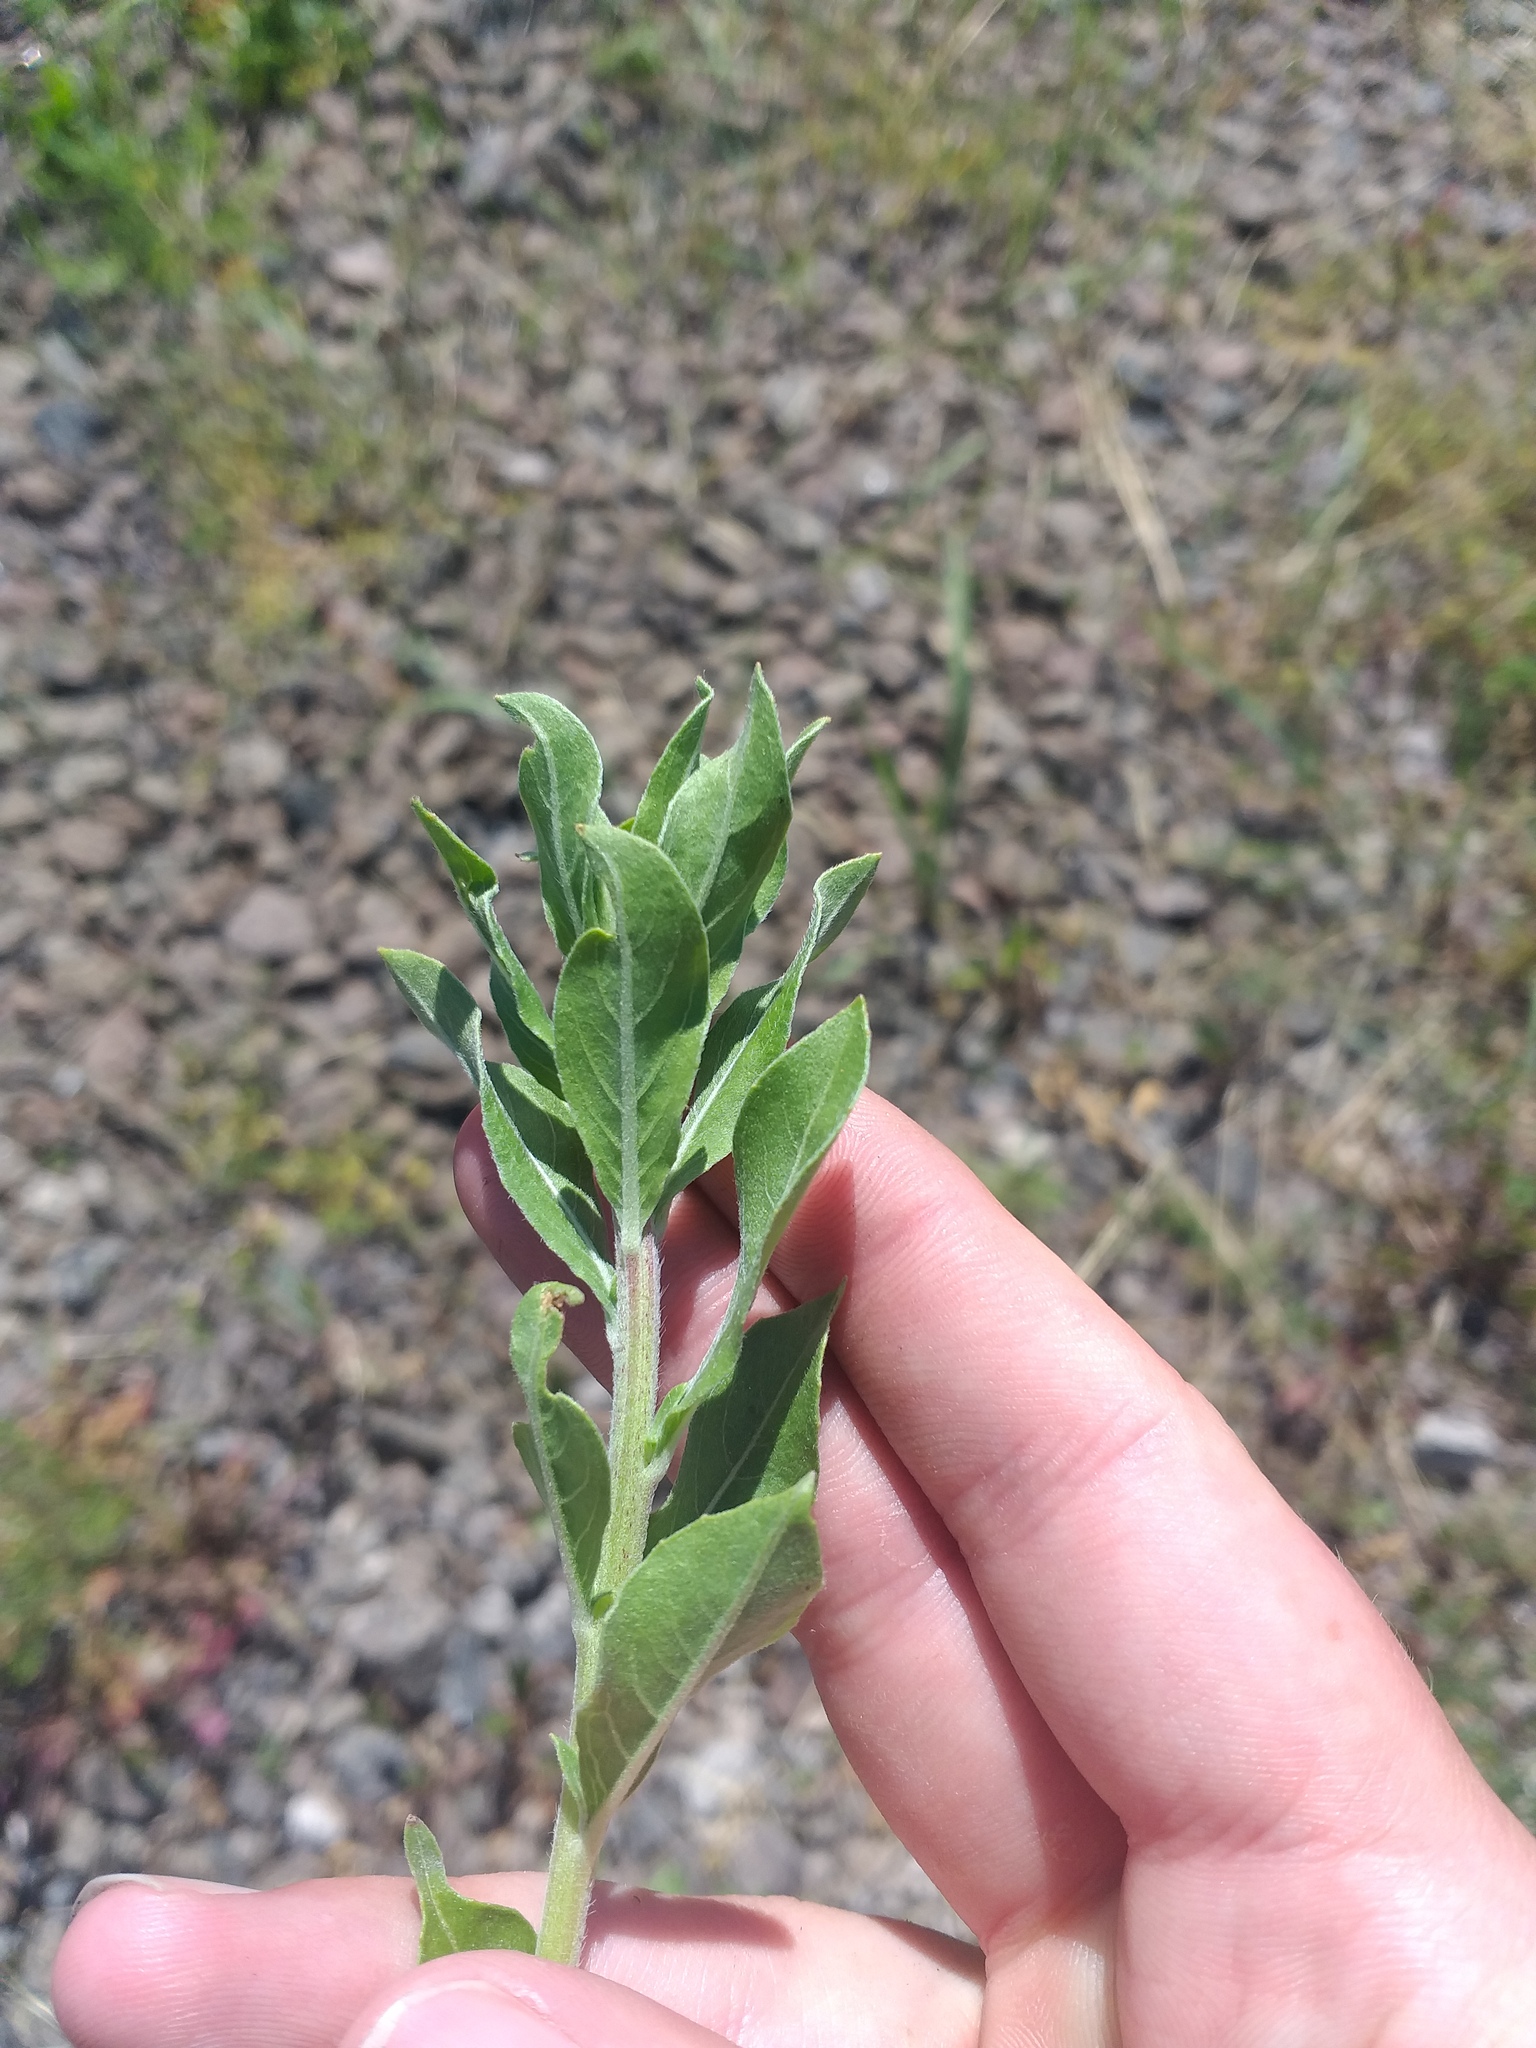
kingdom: Plantae
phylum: Tracheophyta
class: Magnoliopsida
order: Myrtales
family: Onagraceae
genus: Oenothera
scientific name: Oenothera villosa
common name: Hairy evening-primrose
